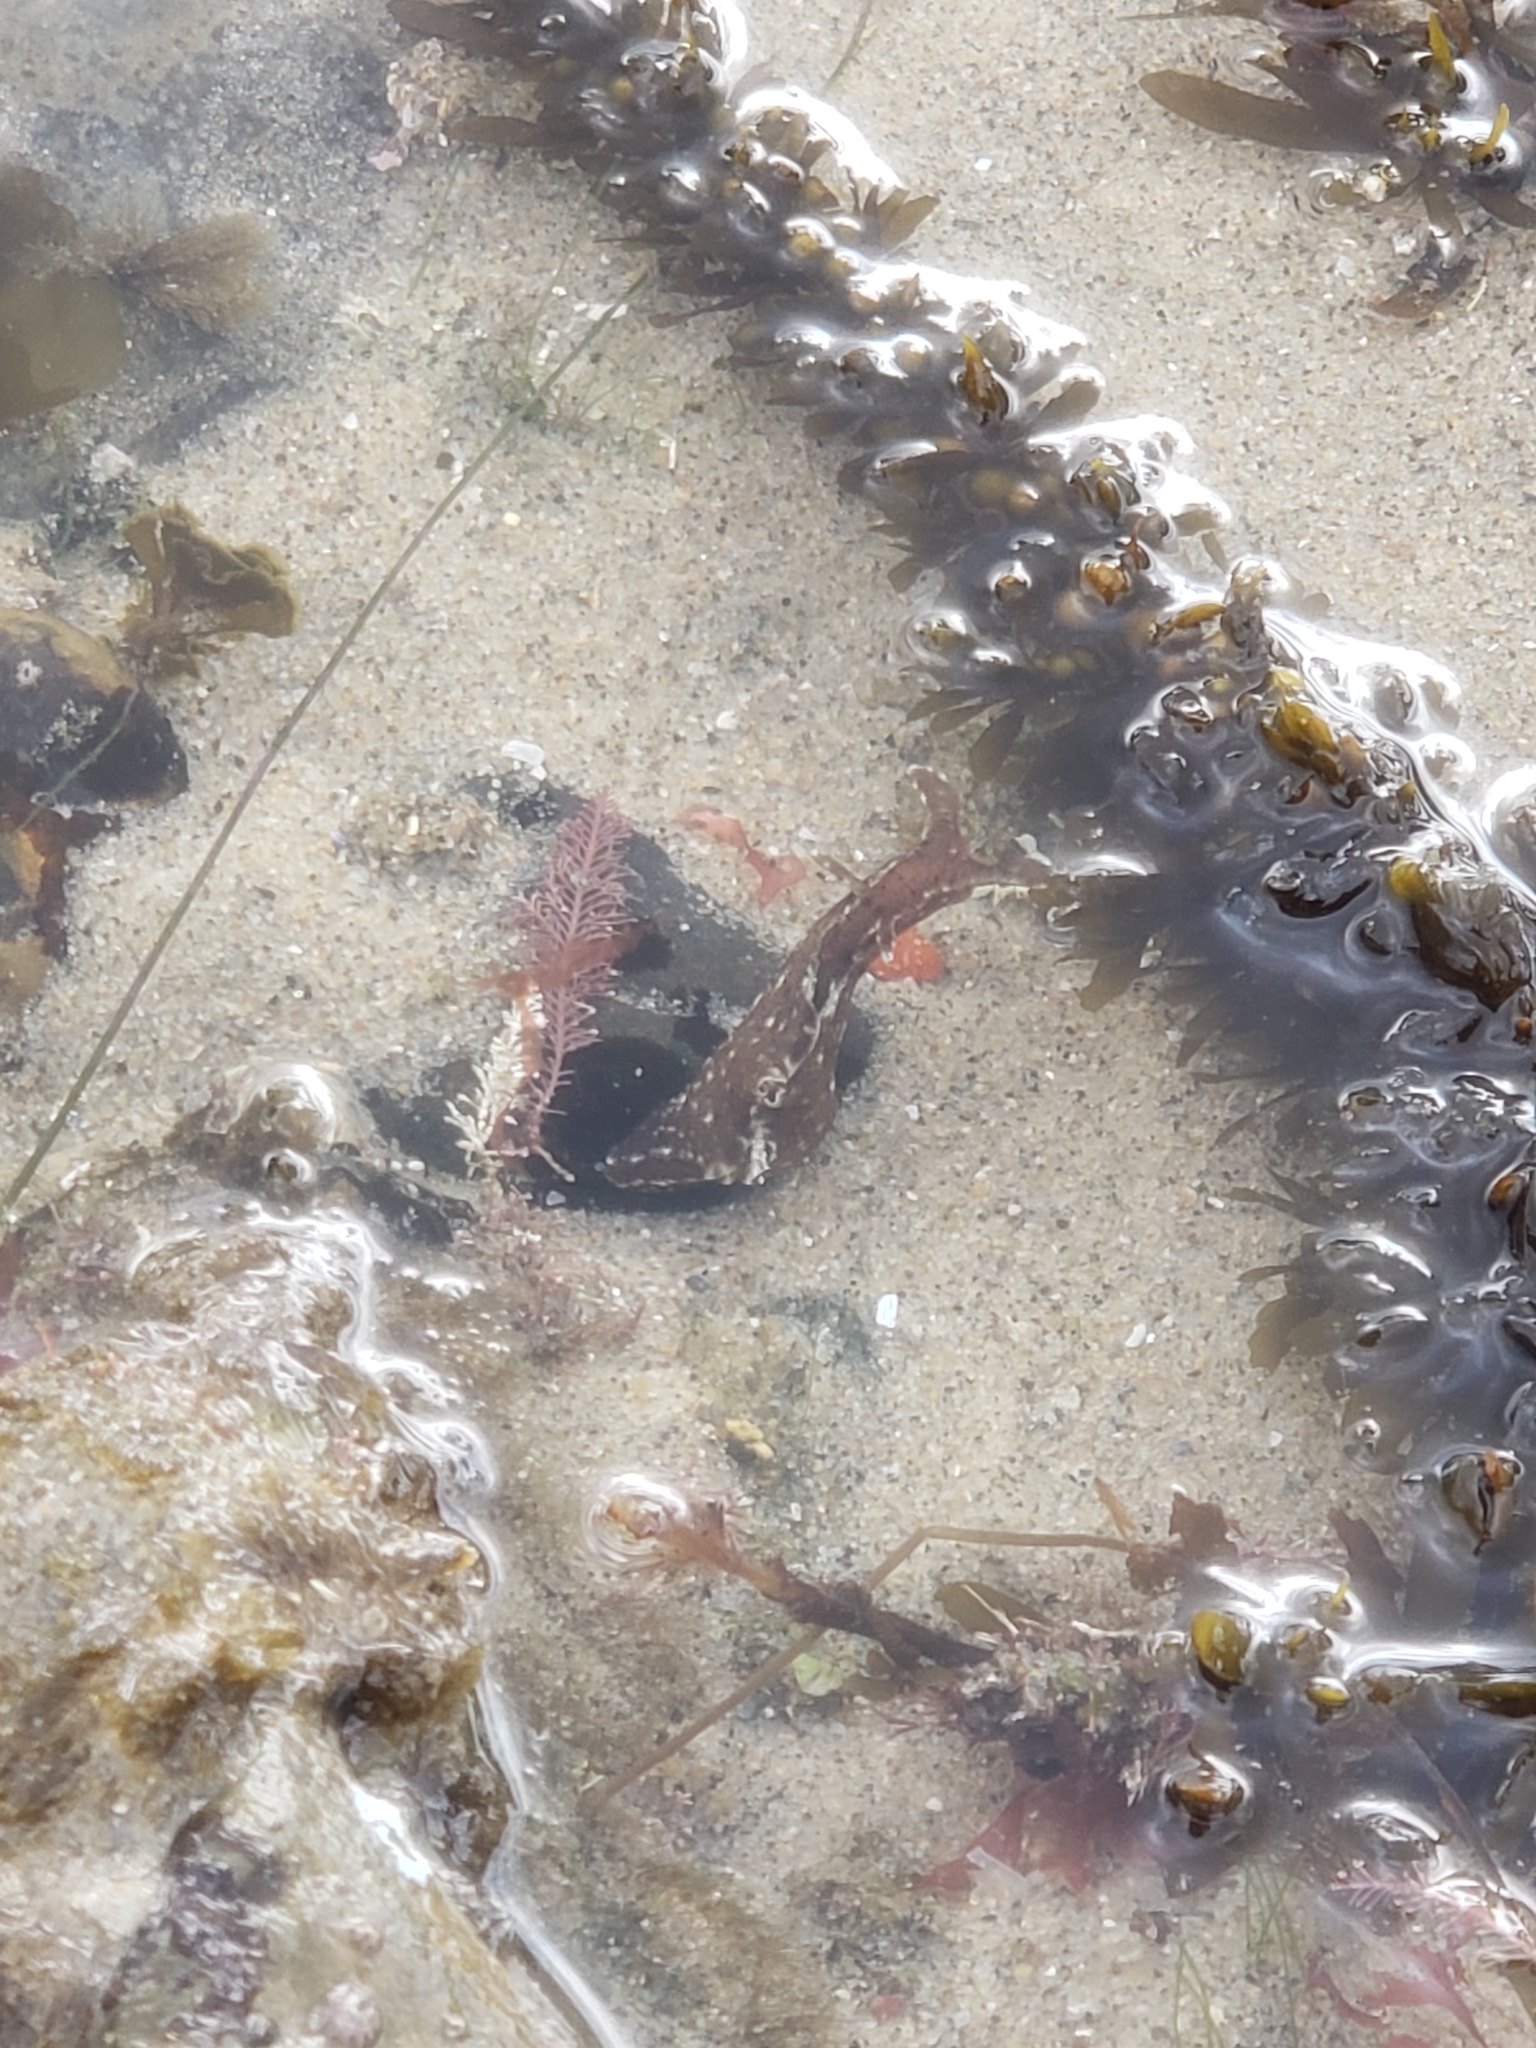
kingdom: Animalia
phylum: Mollusca
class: Gastropoda
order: Aplysiida
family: Aplysiidae
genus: Aplysia
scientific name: Aplysia californica
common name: California seahare
